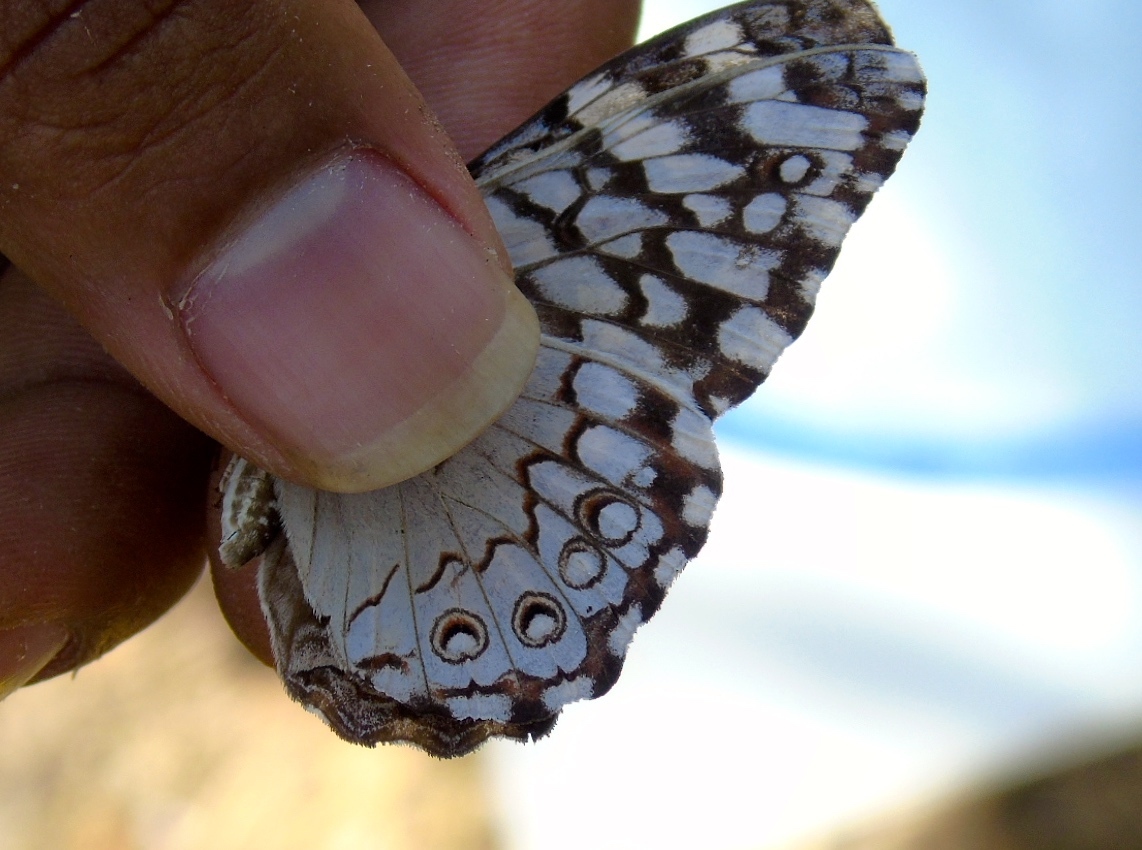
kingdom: Animalia
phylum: Arthropoda
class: Insecta
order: Lepidoptera
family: Nymphalidae
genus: Hamadryas
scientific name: Hamadryas februa
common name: Gray cracker
